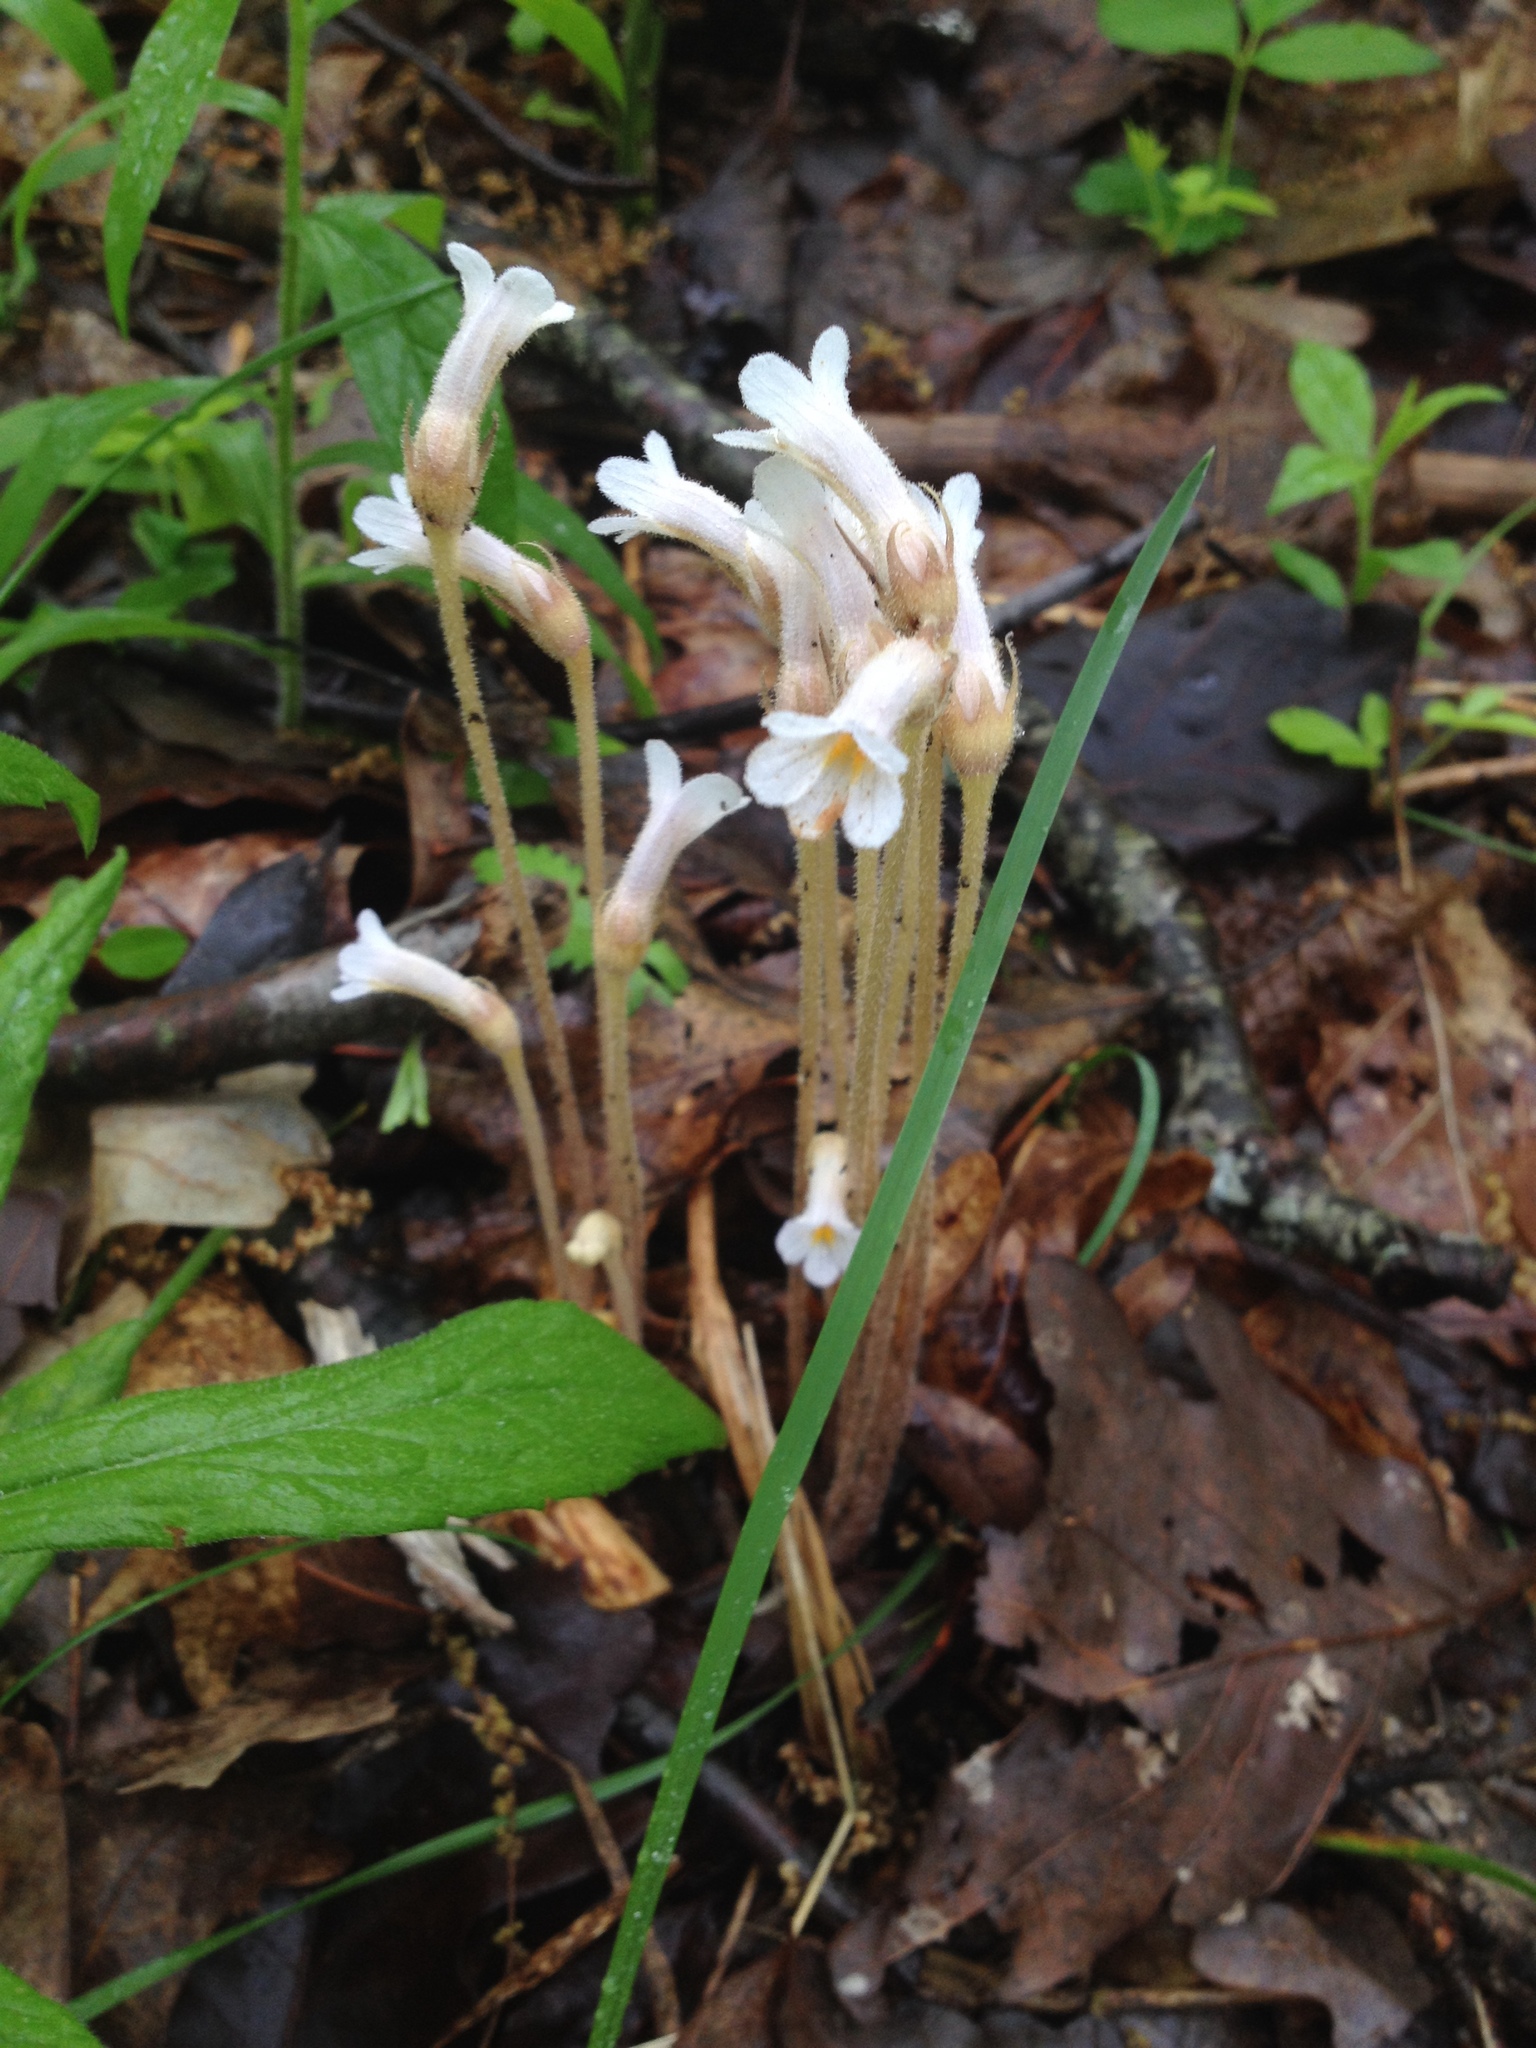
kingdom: Plantae
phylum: Tracheophyta
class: Magnoliopsida
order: Lamiales
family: Orobanchaceae
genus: Aphyllon
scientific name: Aphyllon uniflorum
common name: One-flowered broomrape
